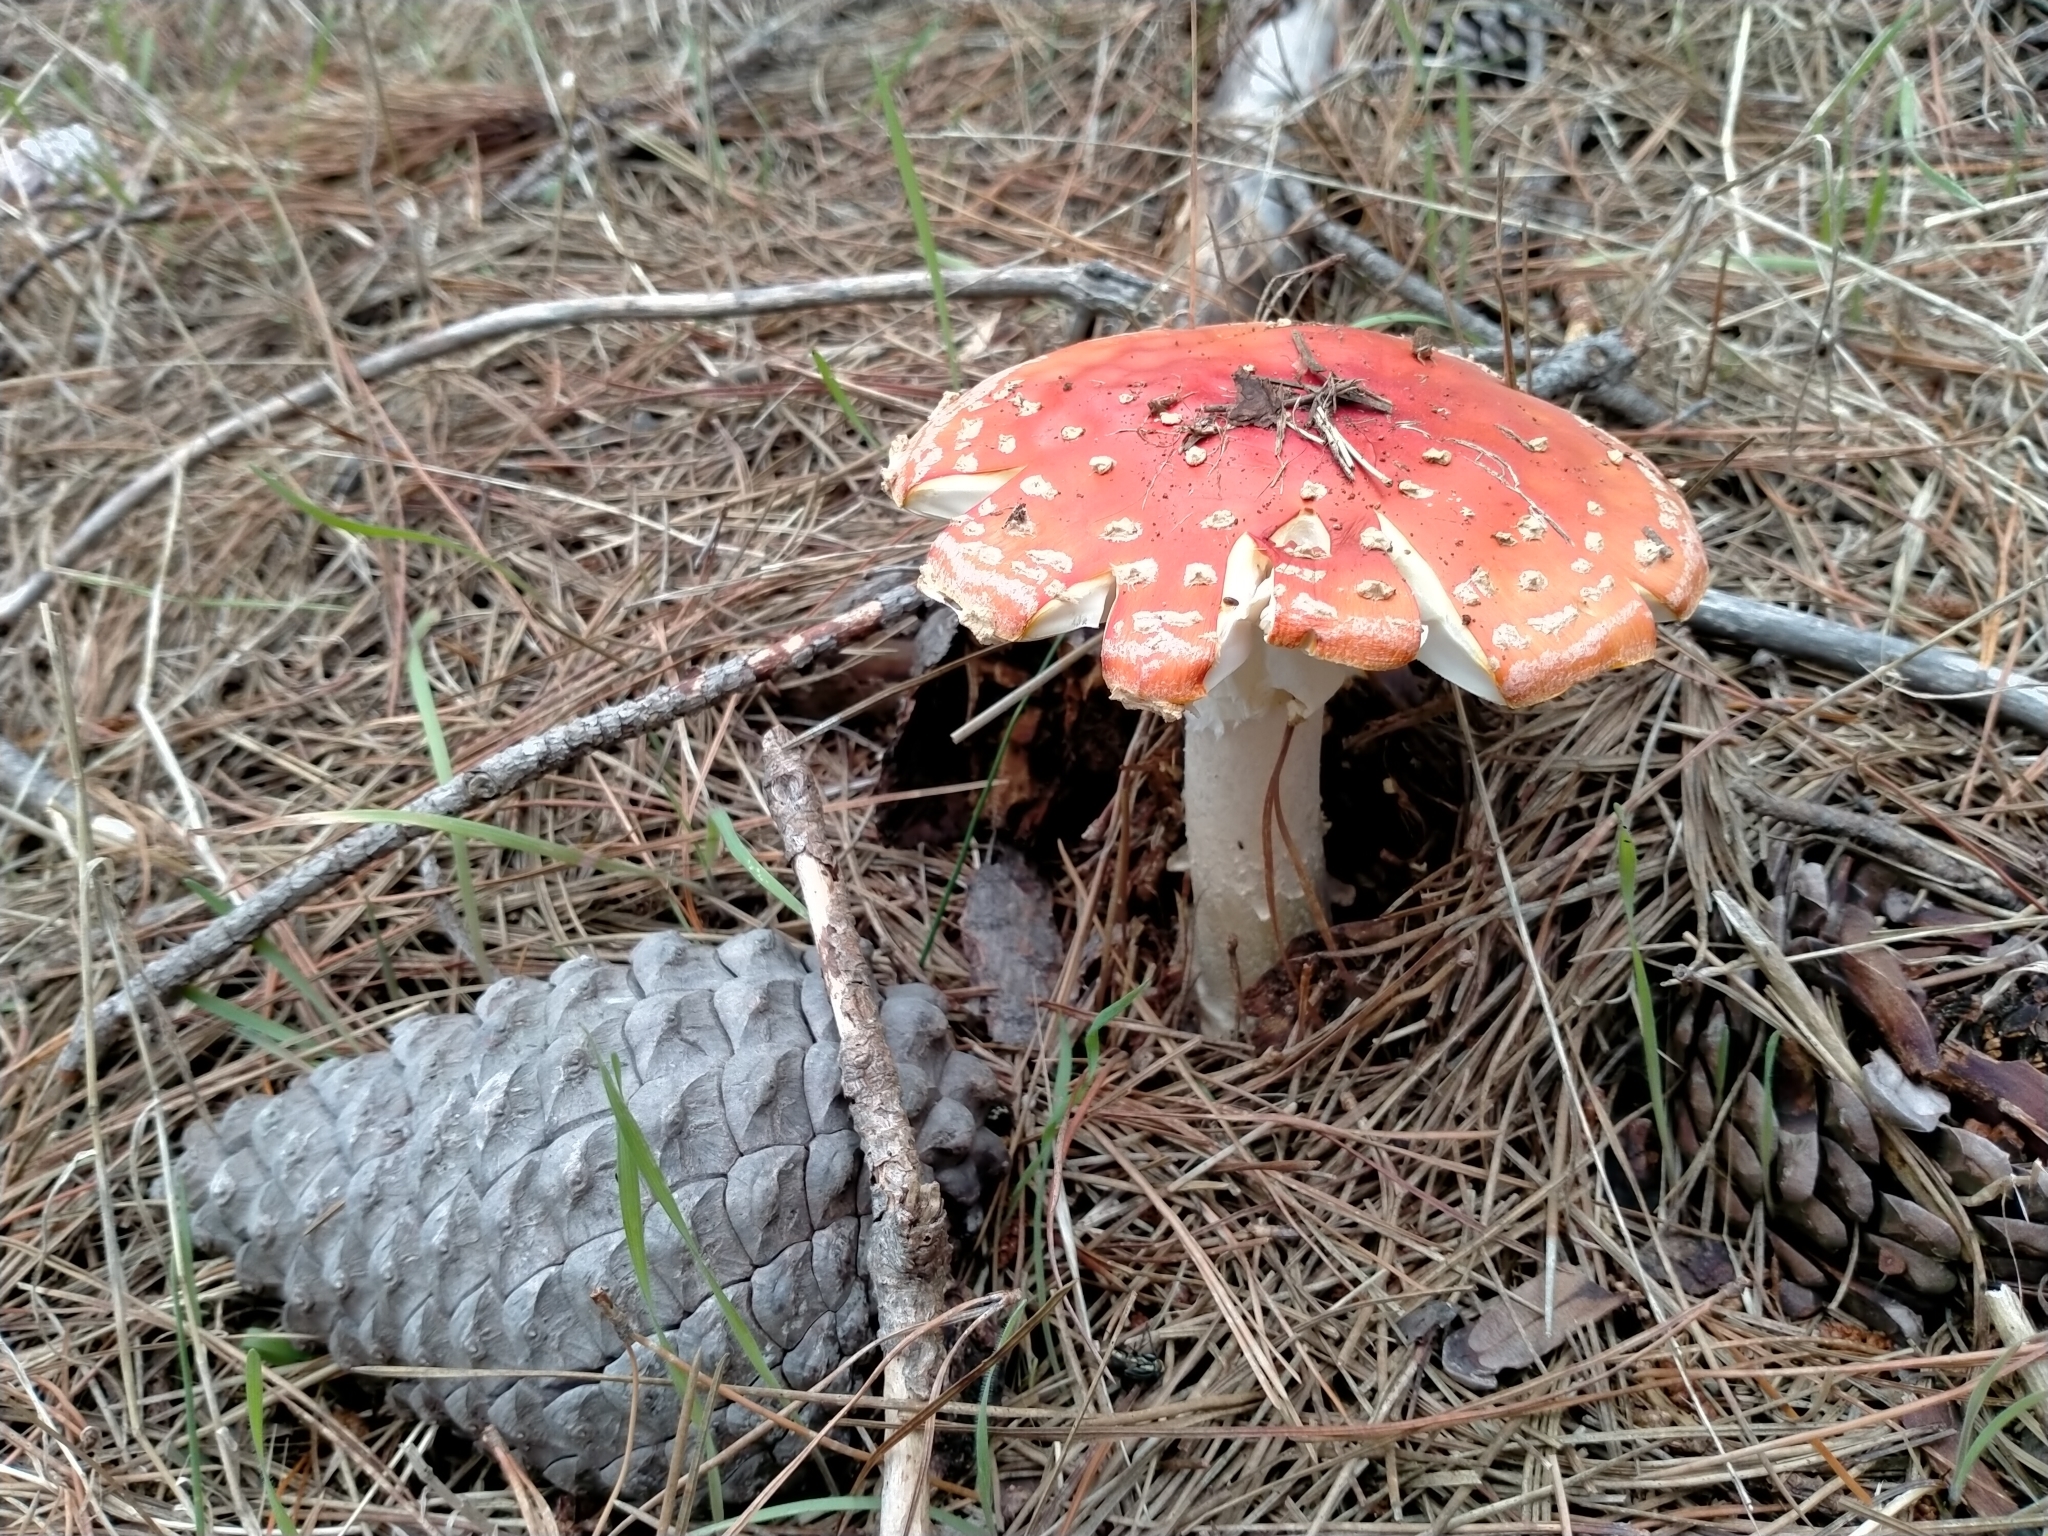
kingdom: Fungi
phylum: Basidiomycota
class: Agaricomycetes
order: Agaricales
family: Amanitaceae
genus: Amanita
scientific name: Amanita muscaria
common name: Fly agaric
